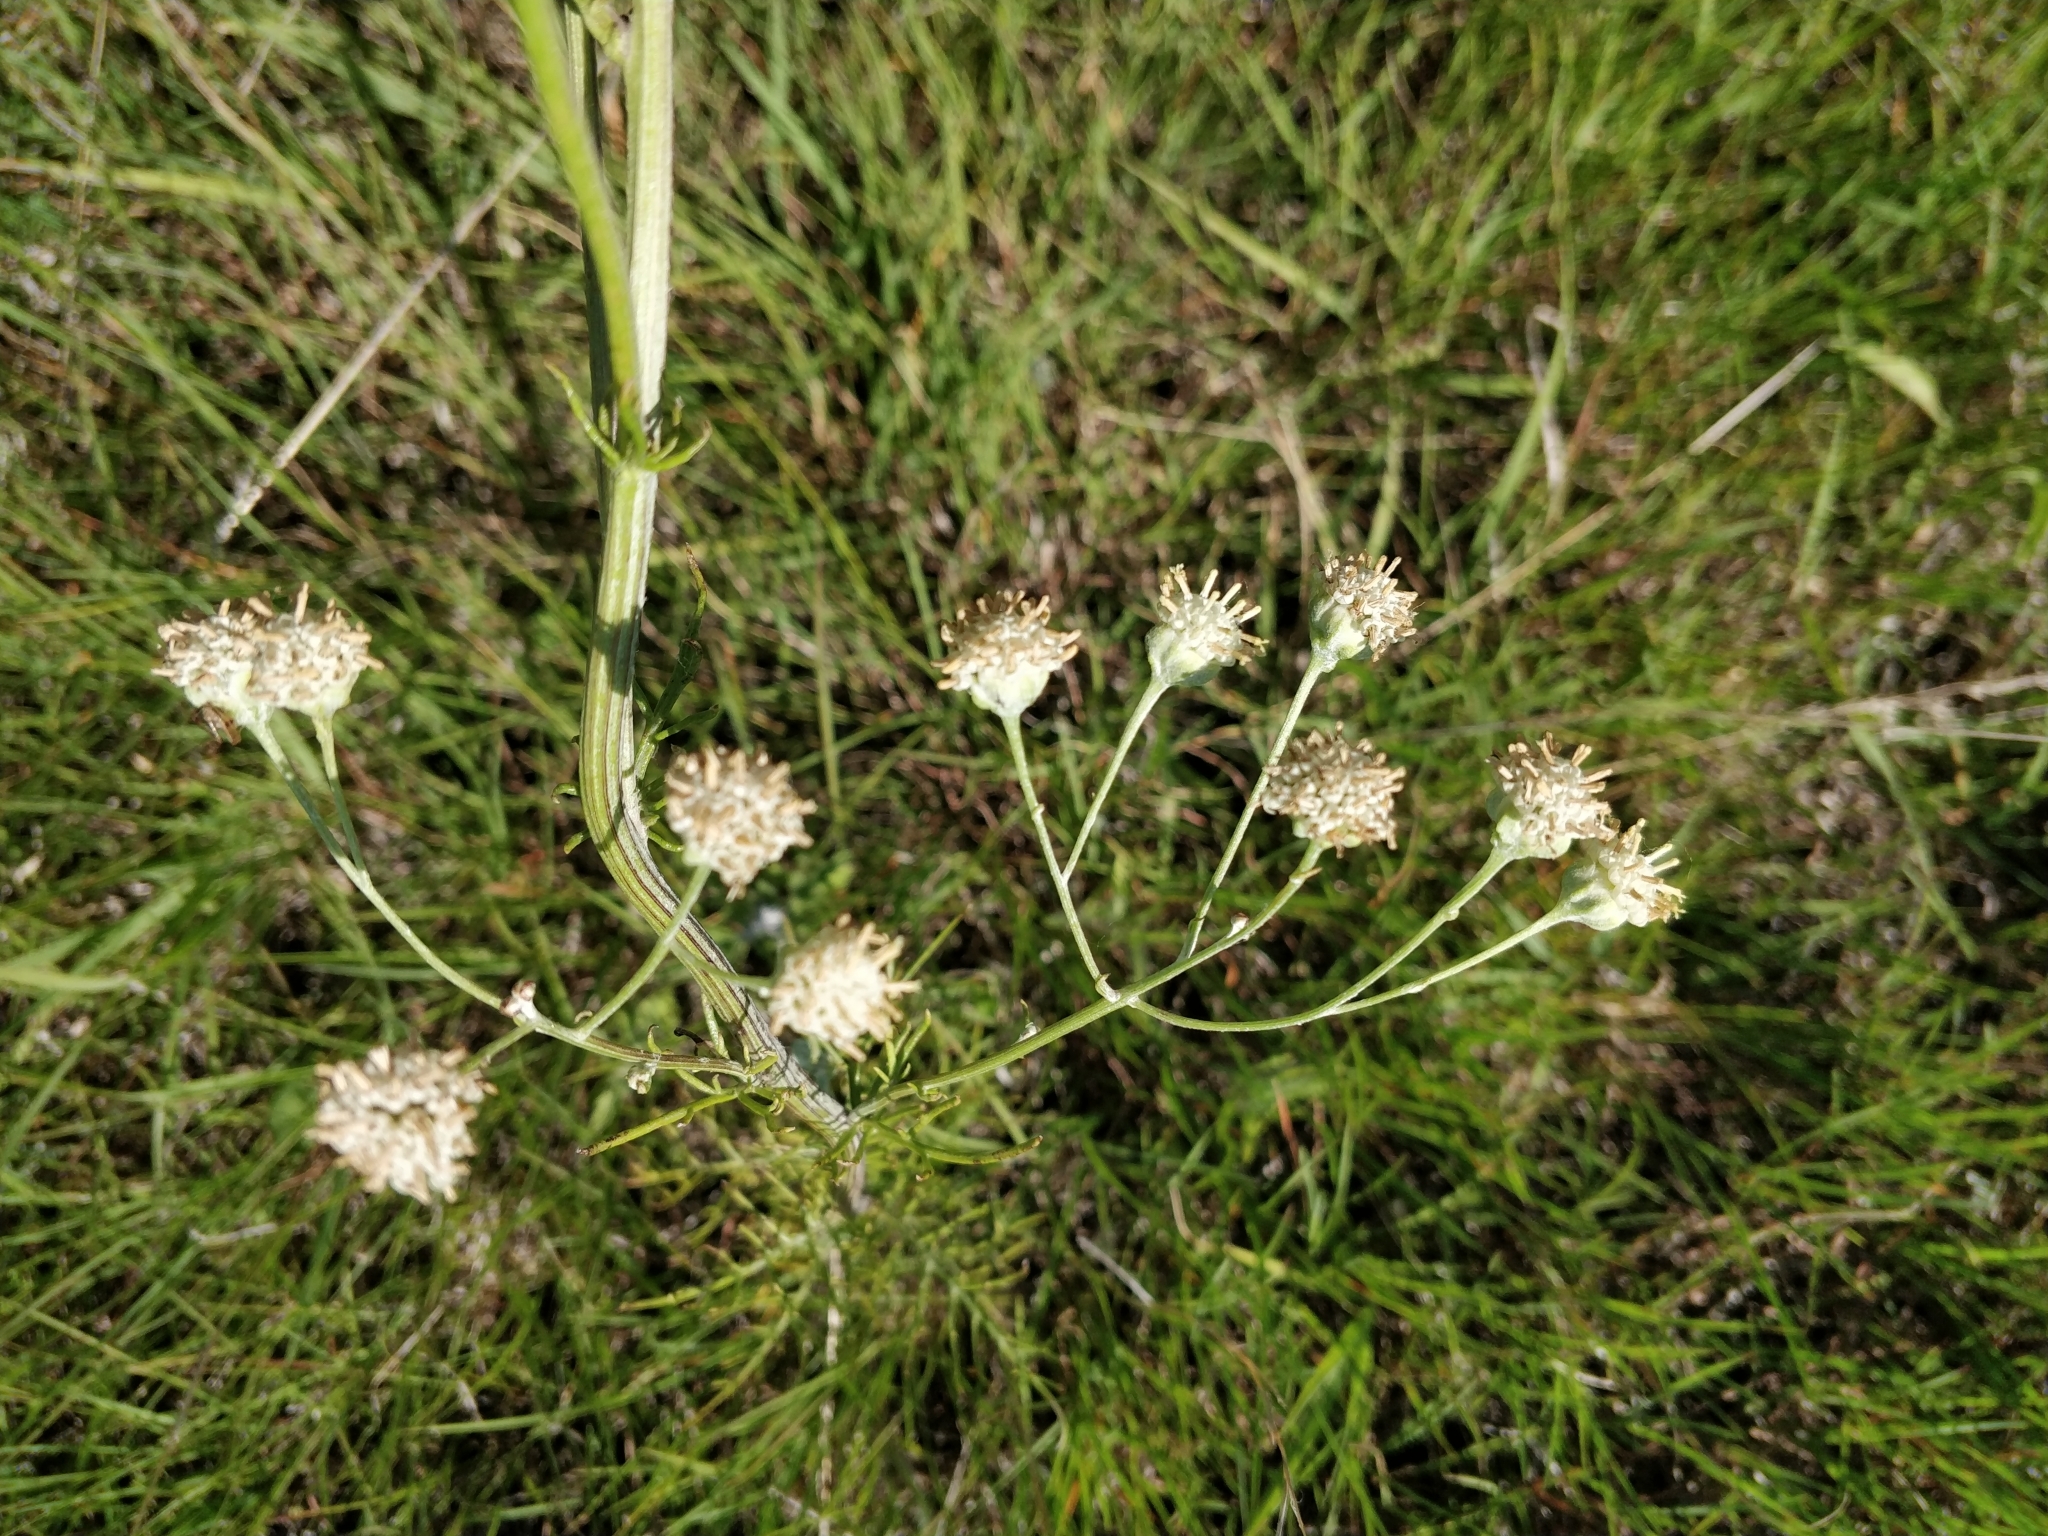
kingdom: Plantae
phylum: Tracheophyta
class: Magnoliopsida
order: Asterales
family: Asteraceae
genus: Hymenopappus
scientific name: Hymenopappus tenuifolius
